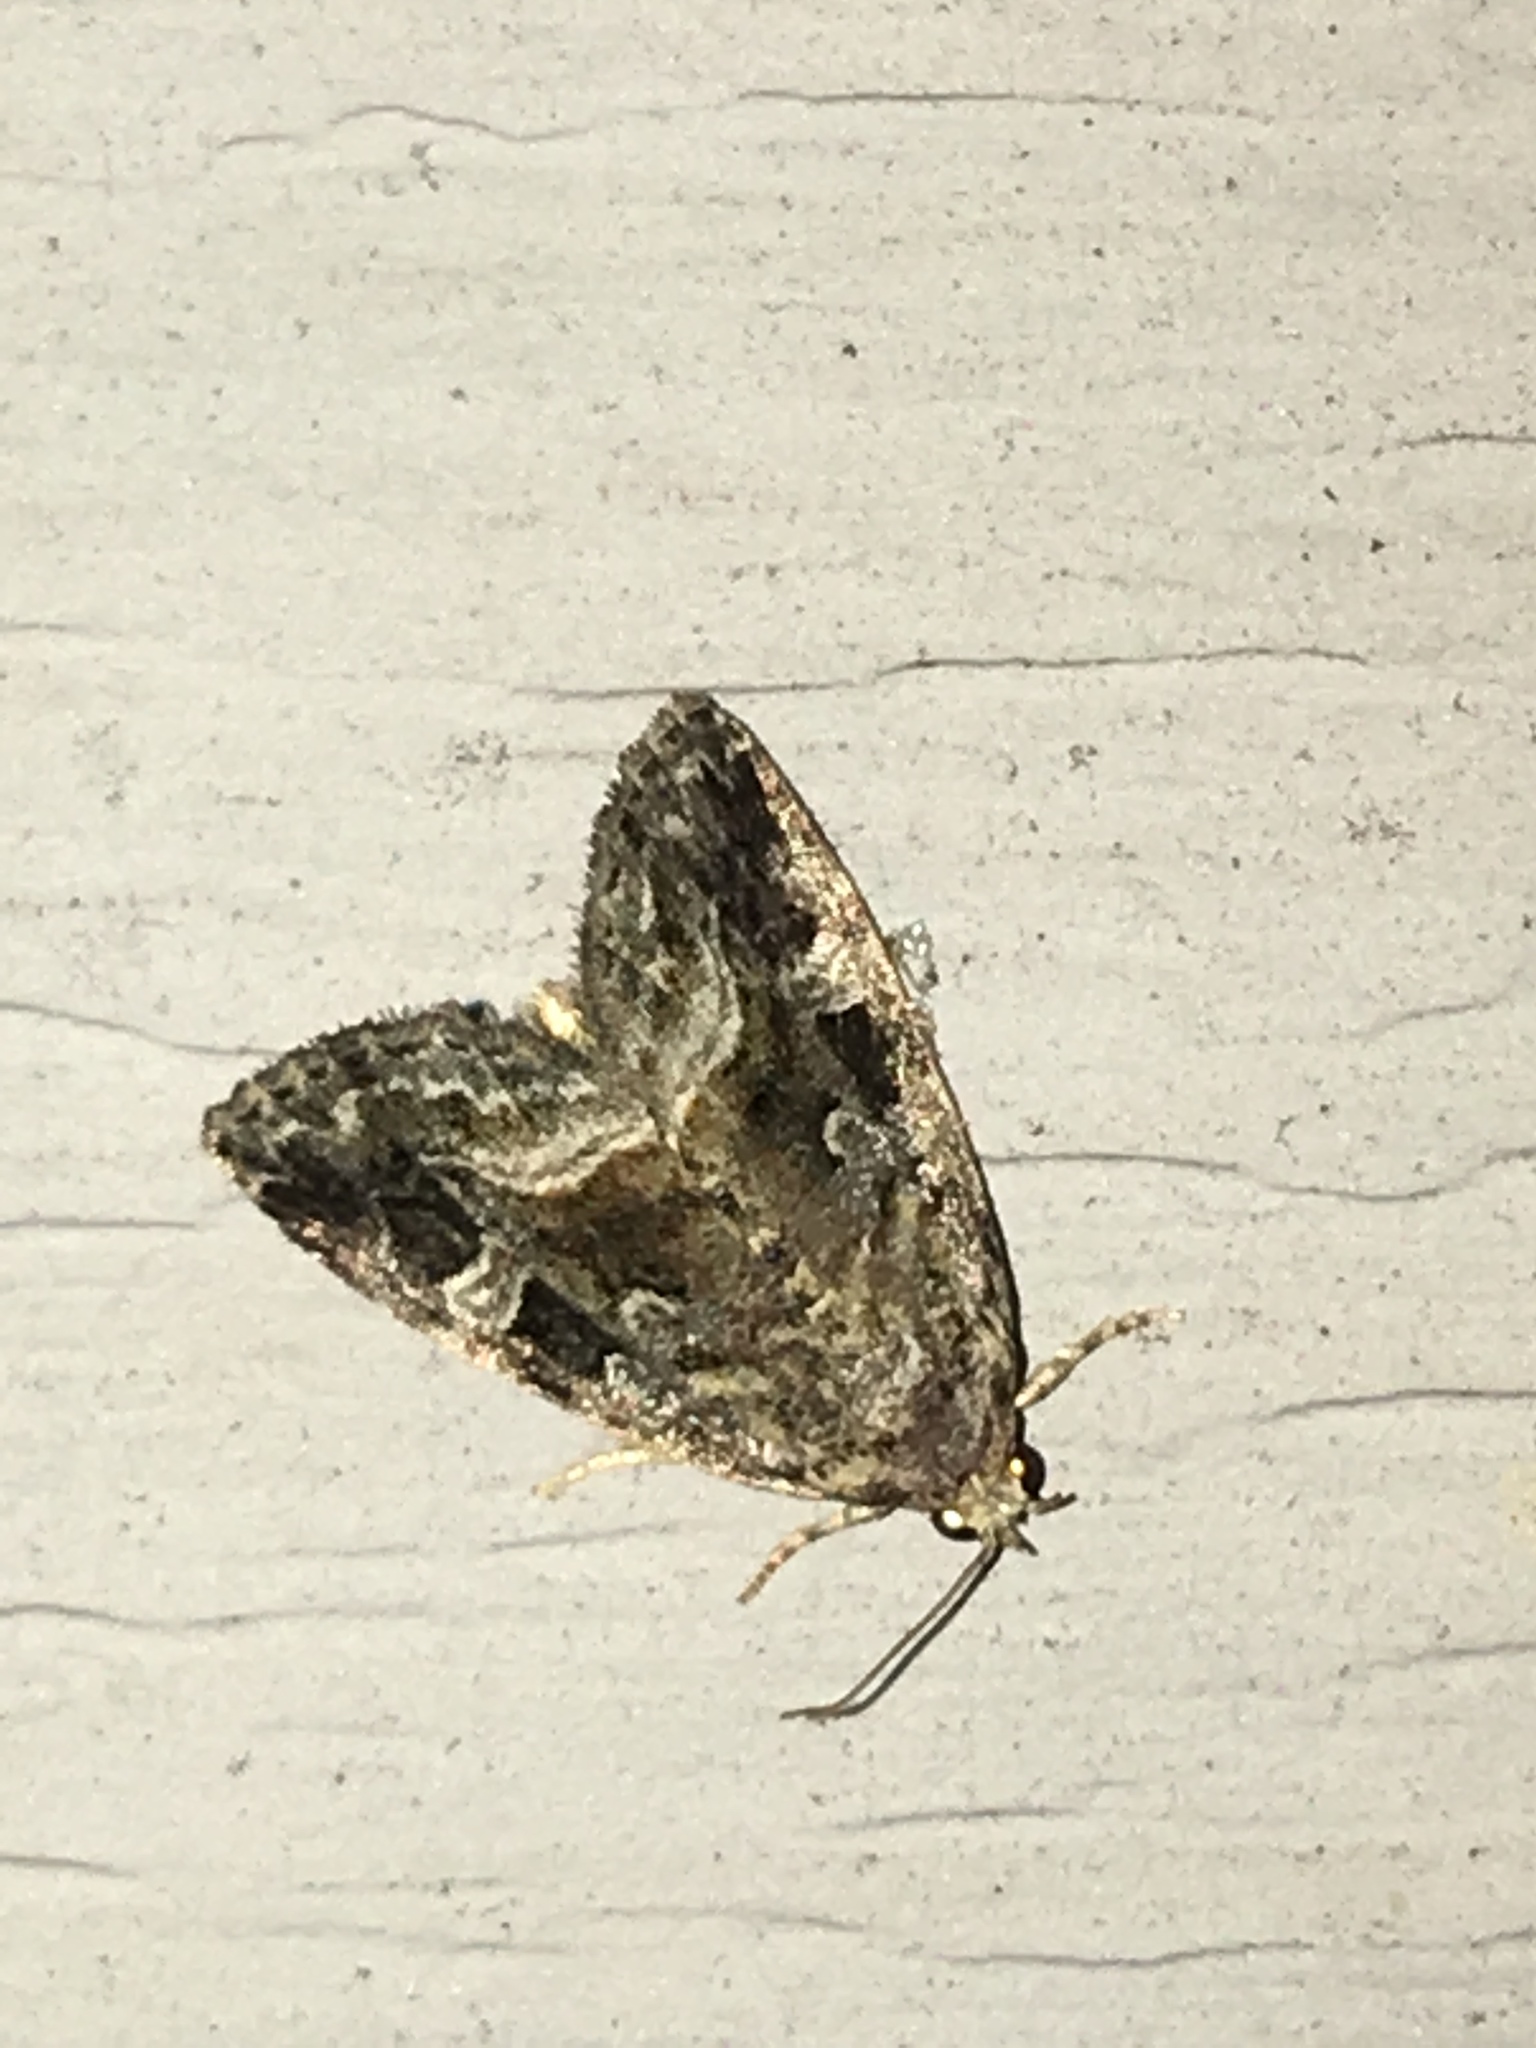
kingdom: Animalia
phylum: Arthropoda
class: Insecta
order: Lepidoptera
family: Noctuidae
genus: Protodeltote
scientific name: Protodeltote muscosula
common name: Large mossy glyph
